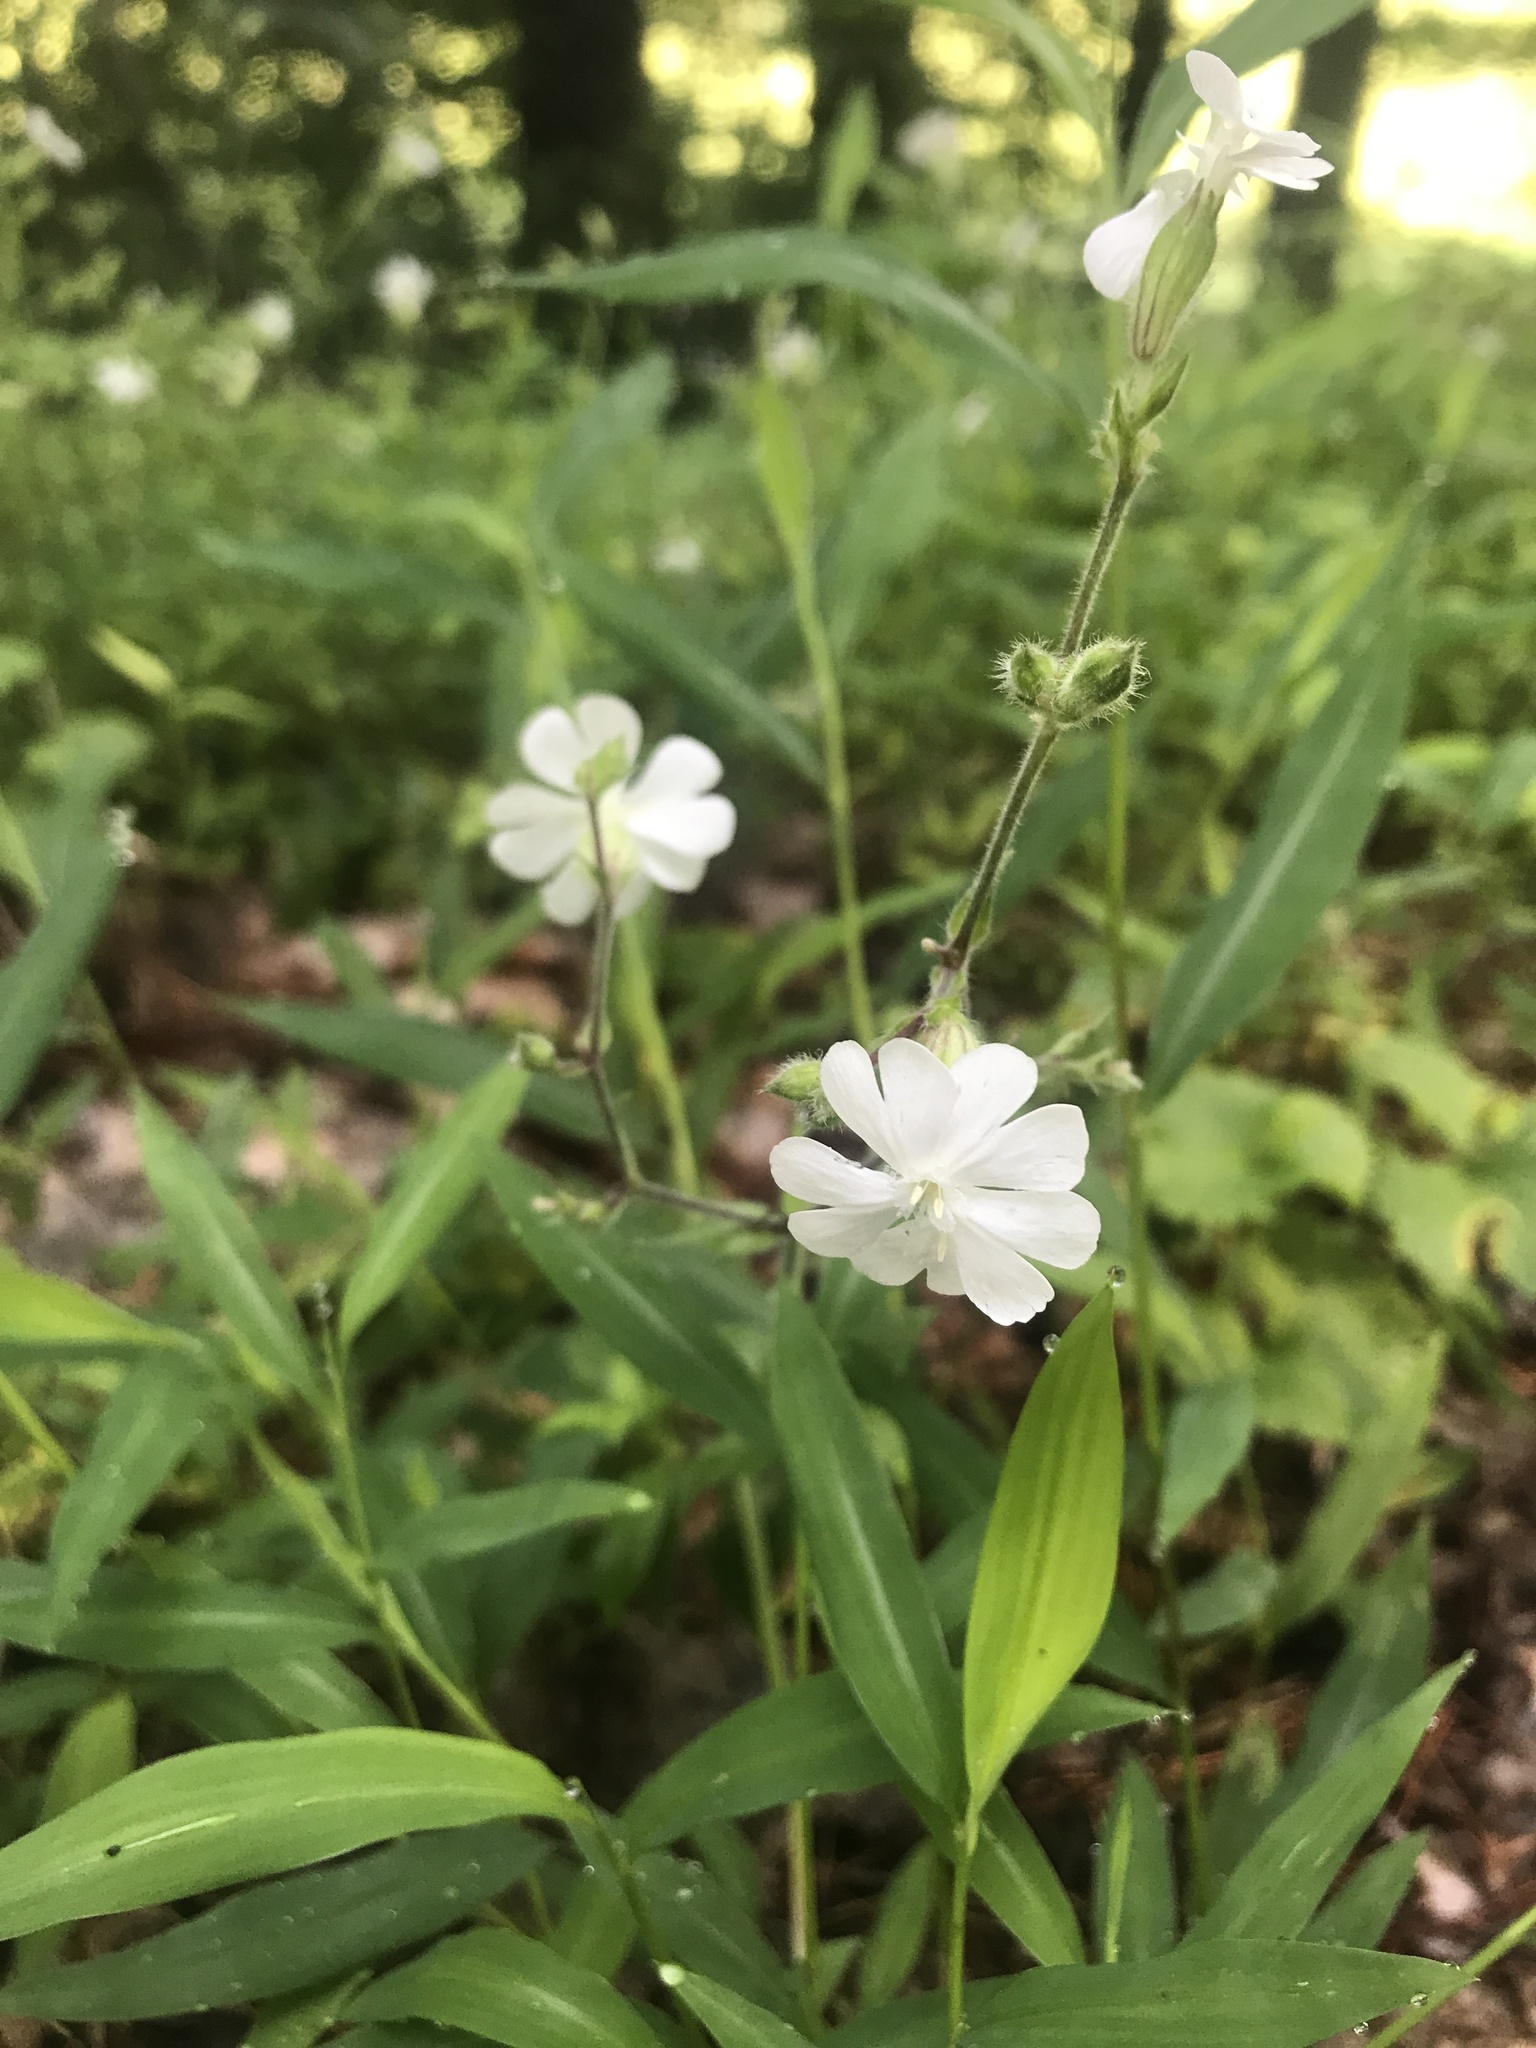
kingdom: Plantae
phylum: Tracheophyta
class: Magnoliopsida
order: Caryophyllales
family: Caryophyllaceae
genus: Silene
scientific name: Silene latifolia
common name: White campion
